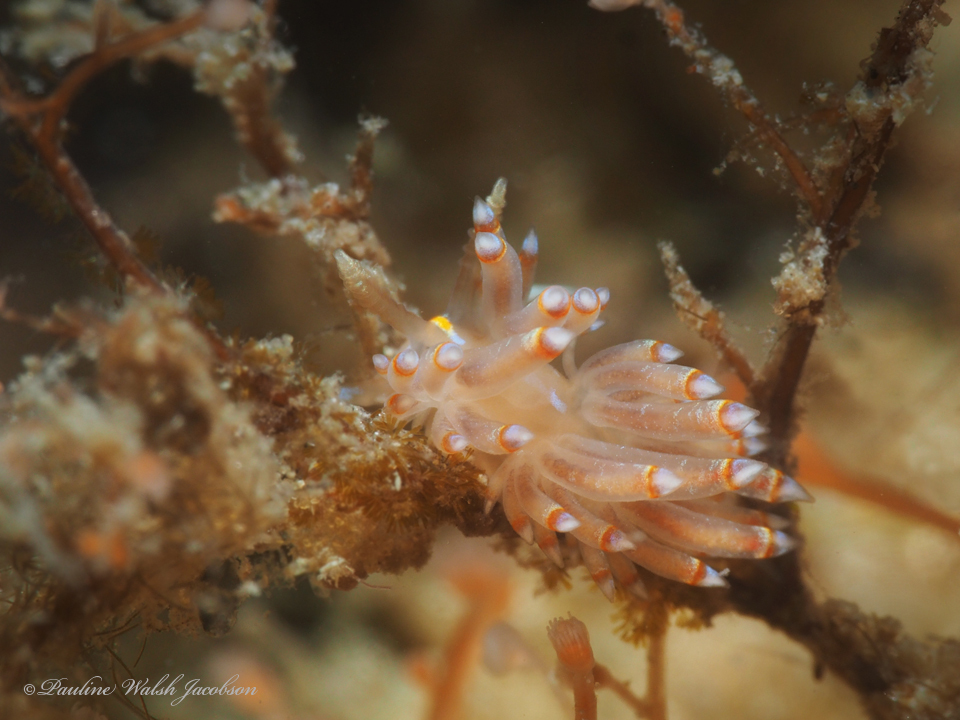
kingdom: Animalia
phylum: Mollusca
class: Gastropoda
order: Nudibranchia
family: Myrrhinidae
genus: Dondice
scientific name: Dondice jupiteriensis
